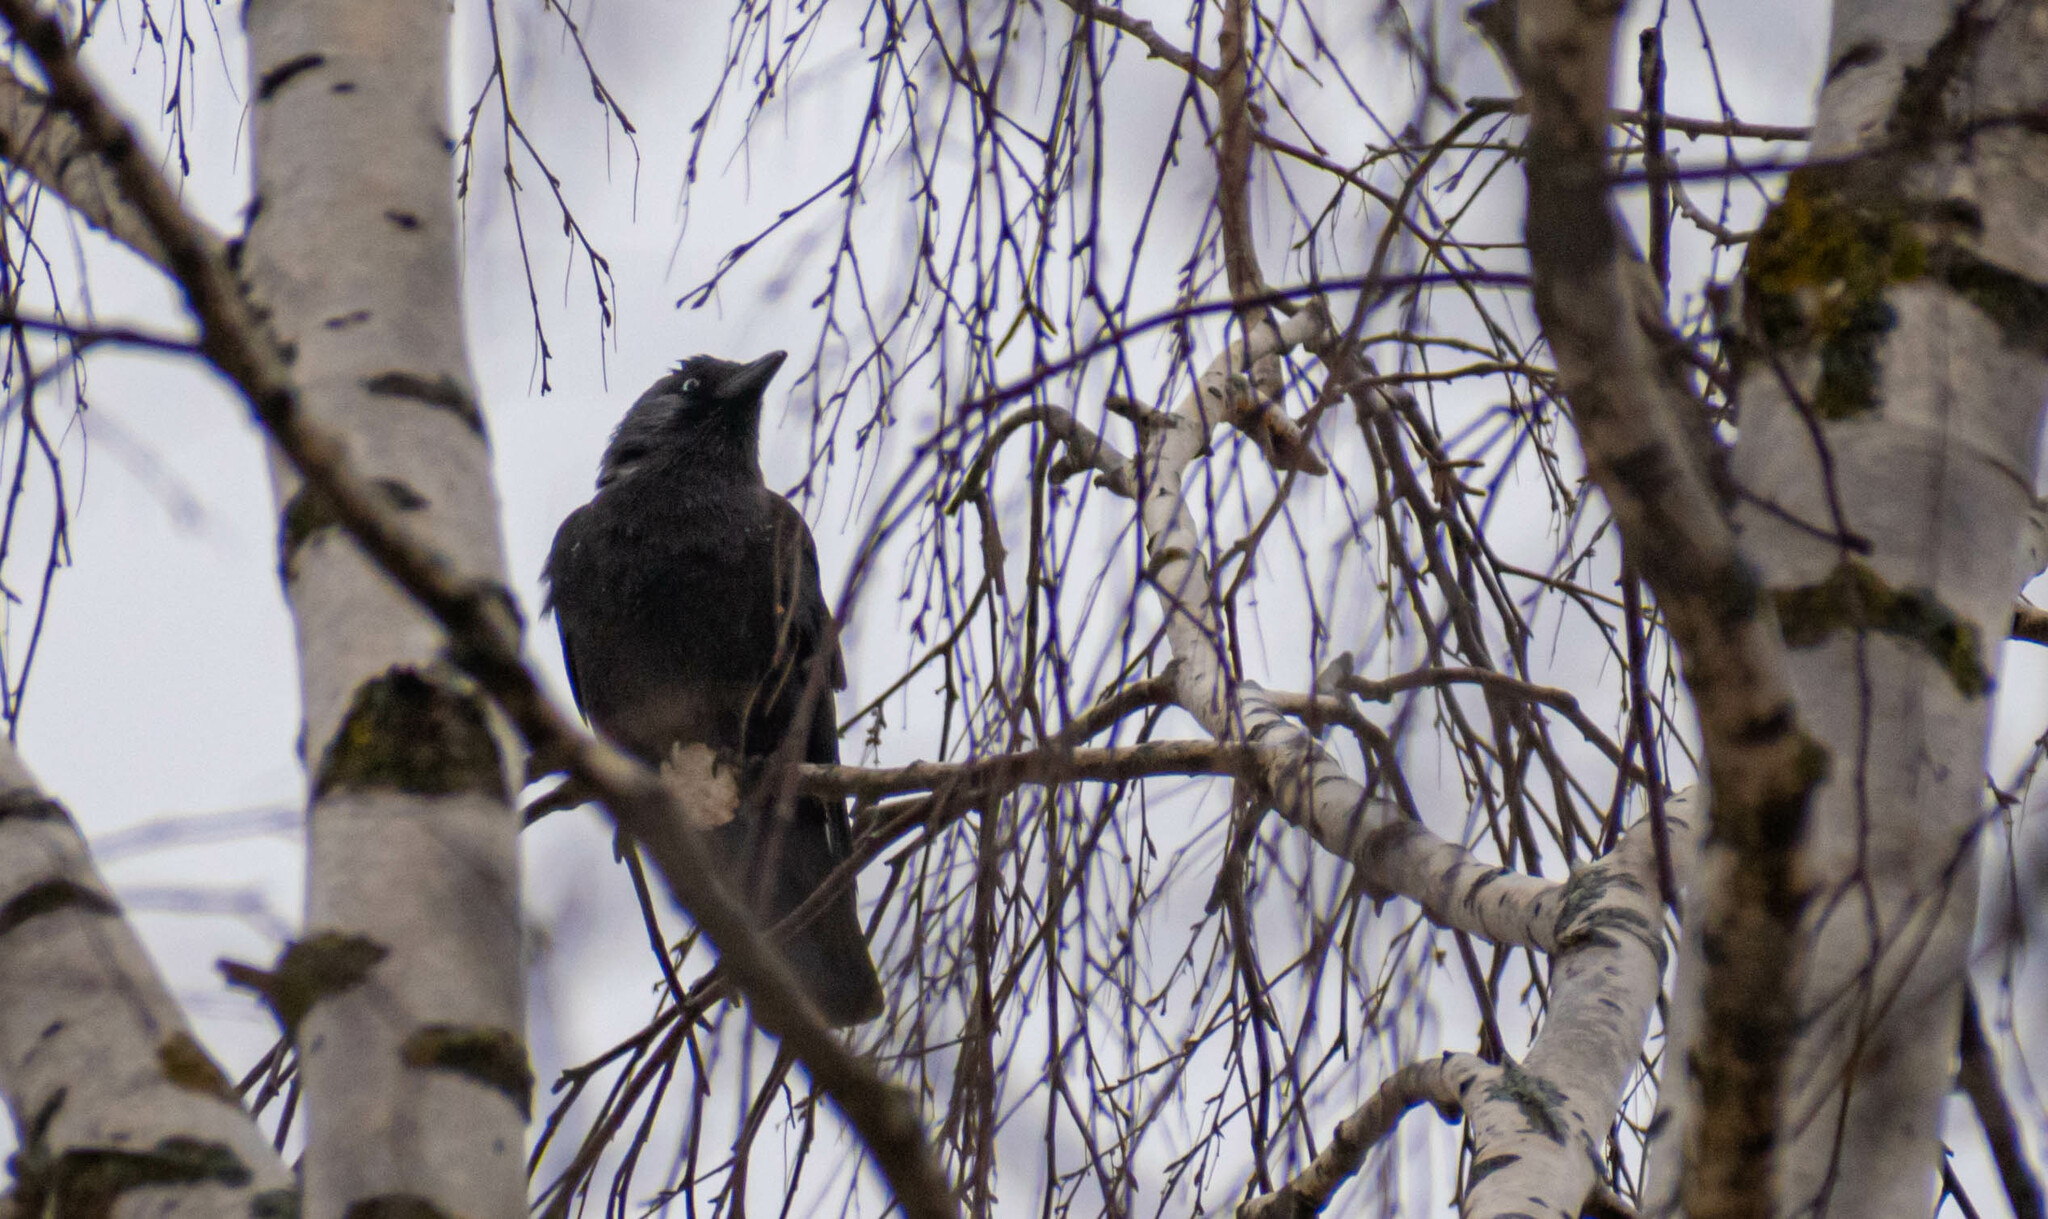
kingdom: Animalia
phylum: Chordata
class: Aves
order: Passeriformes
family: Corvidae
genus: Coloeus
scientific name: Coloeus monedula
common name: Western jackdaw
